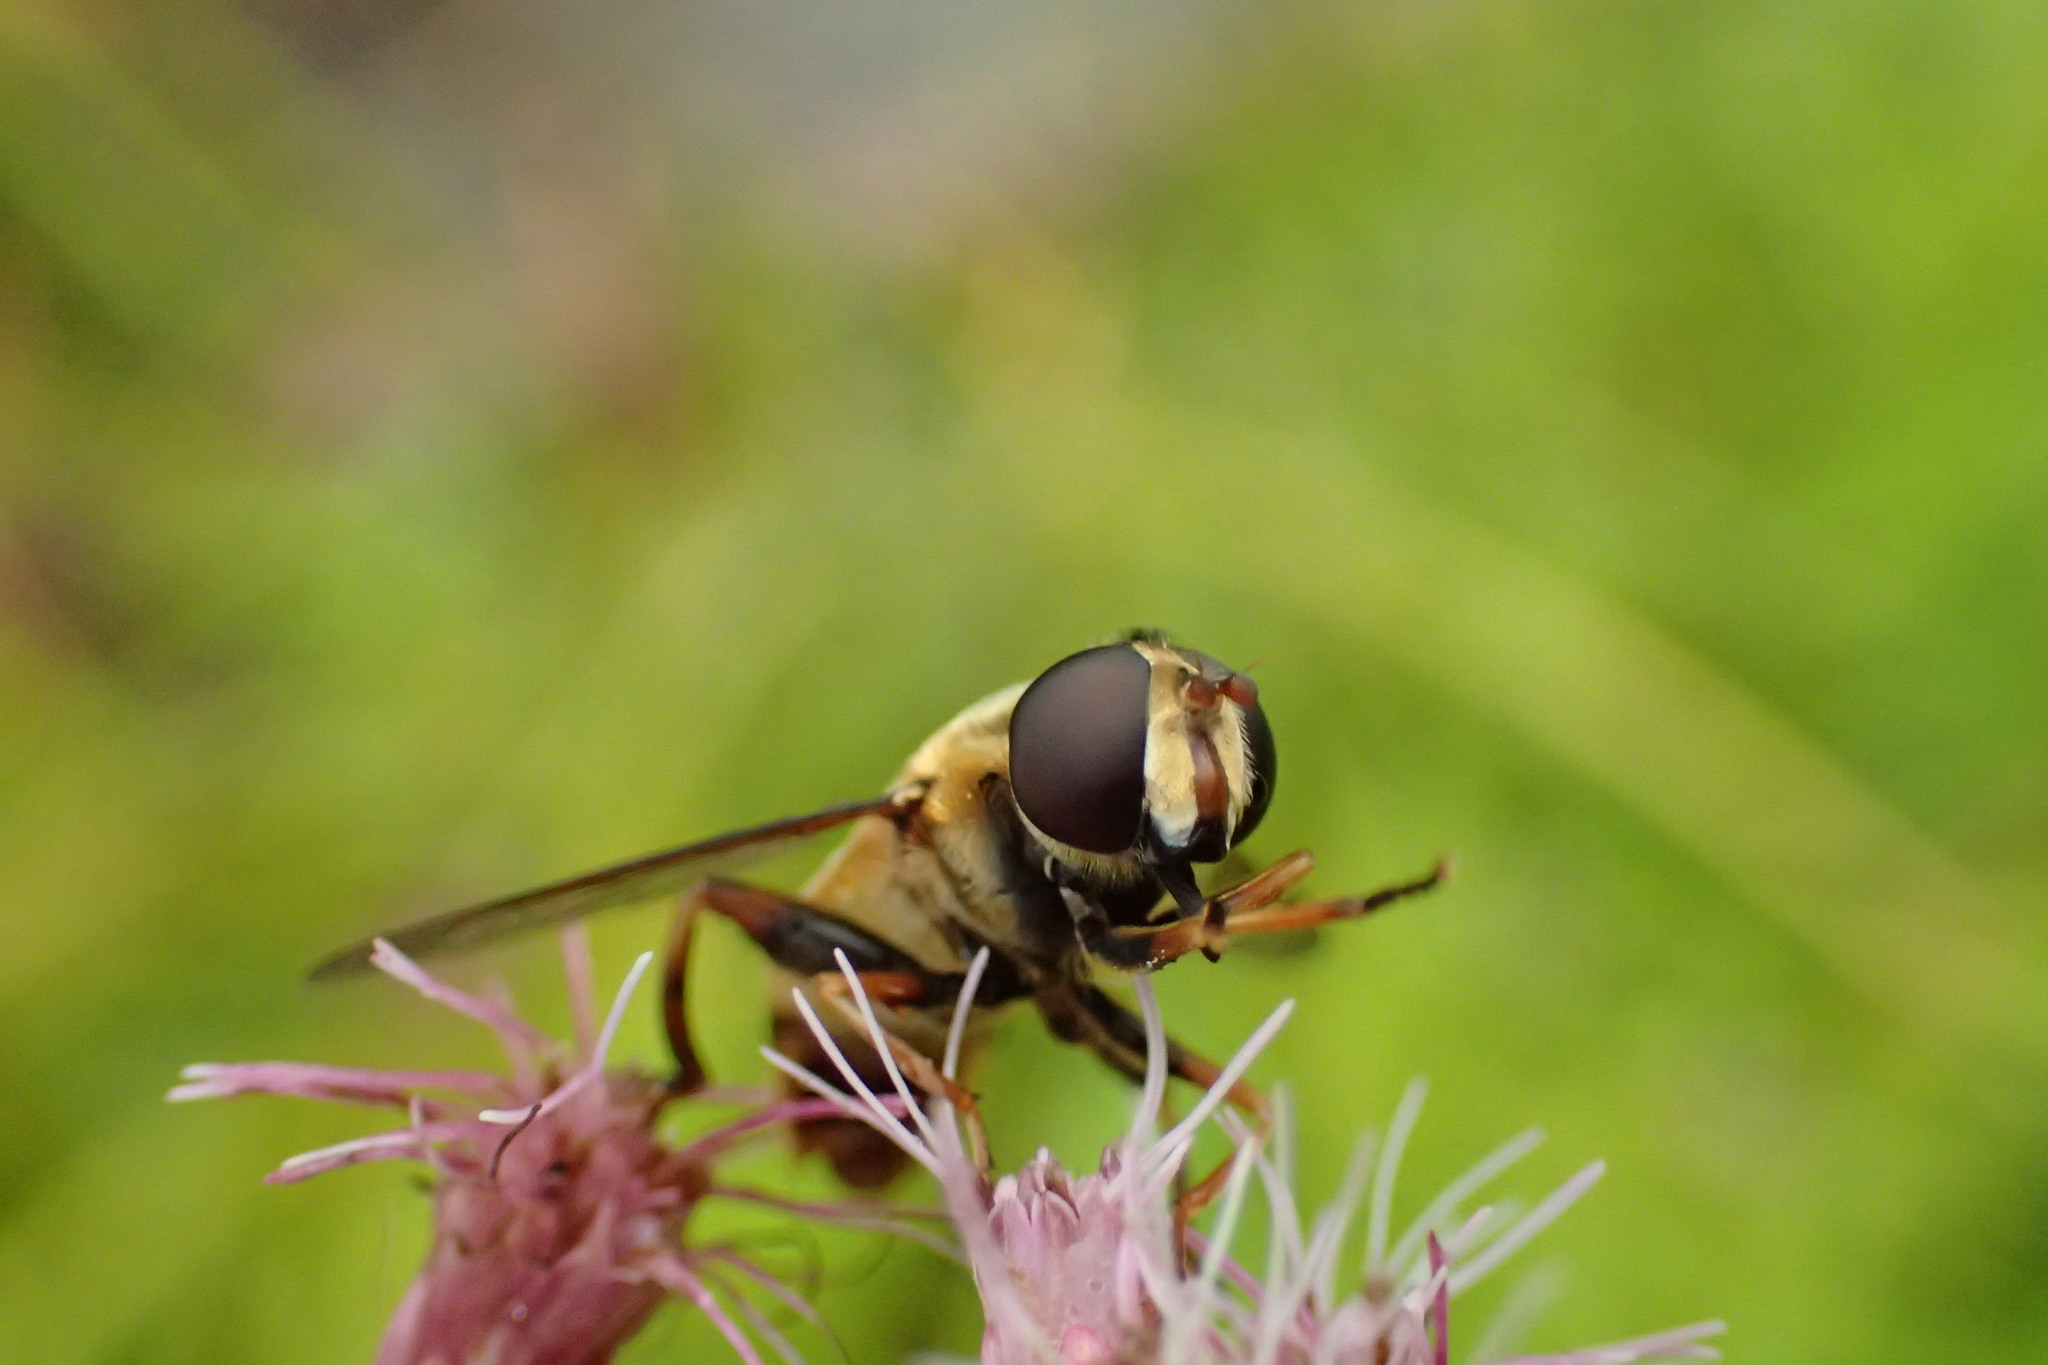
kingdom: Animalia
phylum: Arthropoda
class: Insecta
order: Diptera
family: Syrphidae
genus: Helophilus
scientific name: Helophilus fasciatus
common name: Narrow-headed marsh fly
